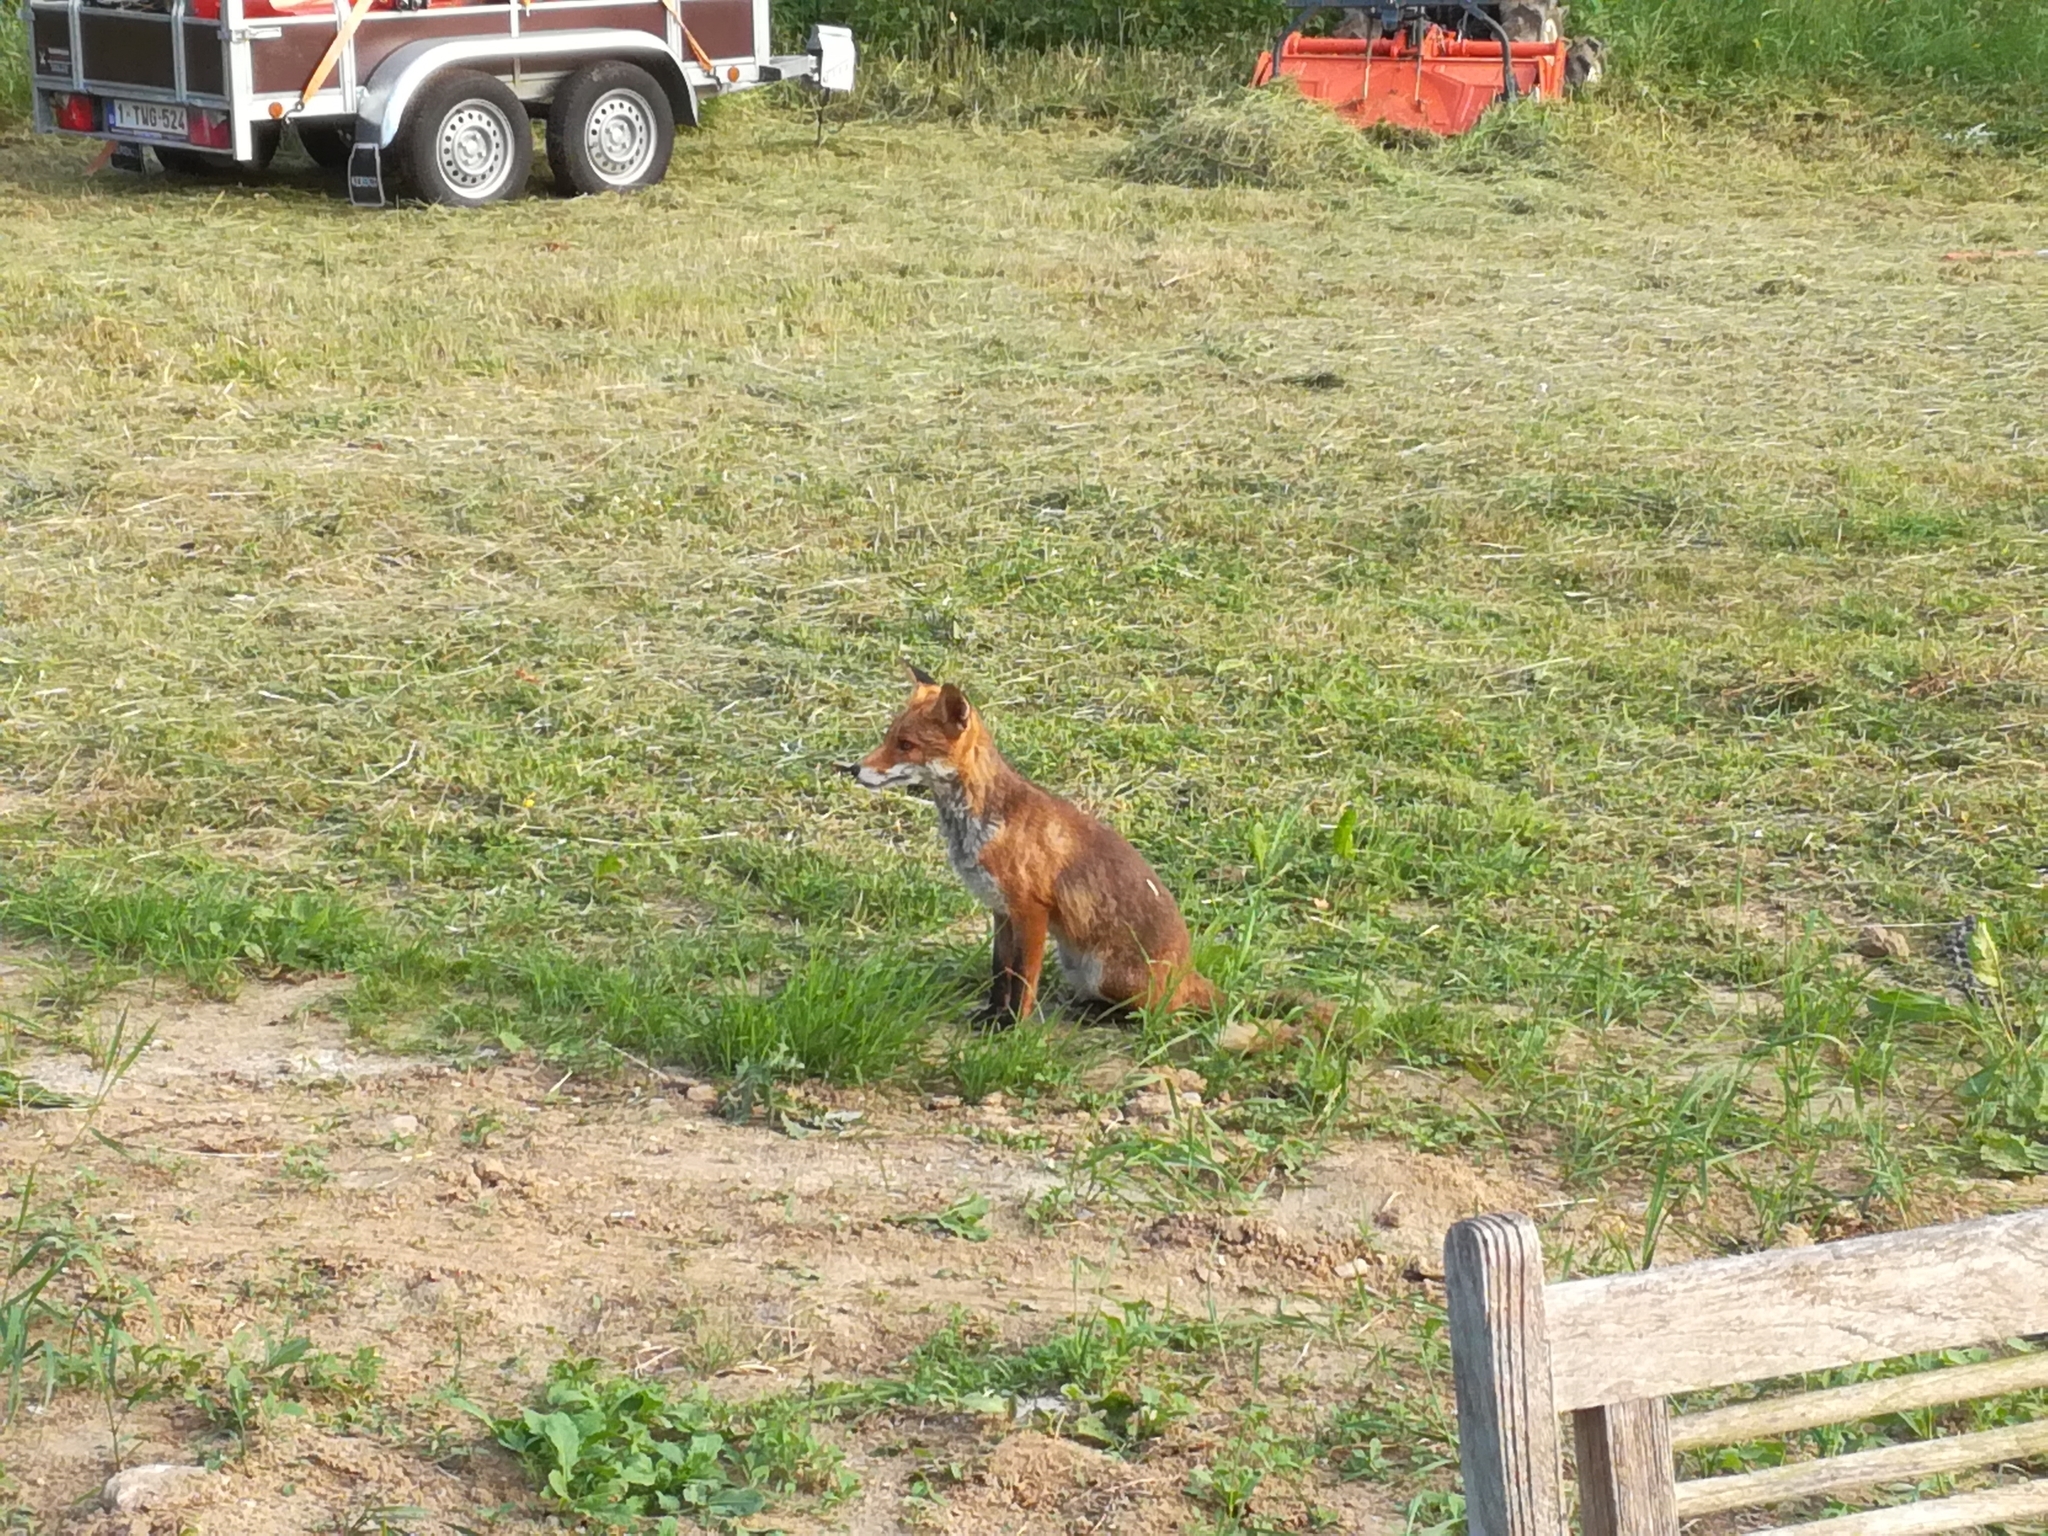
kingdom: Animalia
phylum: Chordata
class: Mammalia
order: Carnivora
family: Canidae
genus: Vulpes
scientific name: Vulpes vulpes
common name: Red fox
